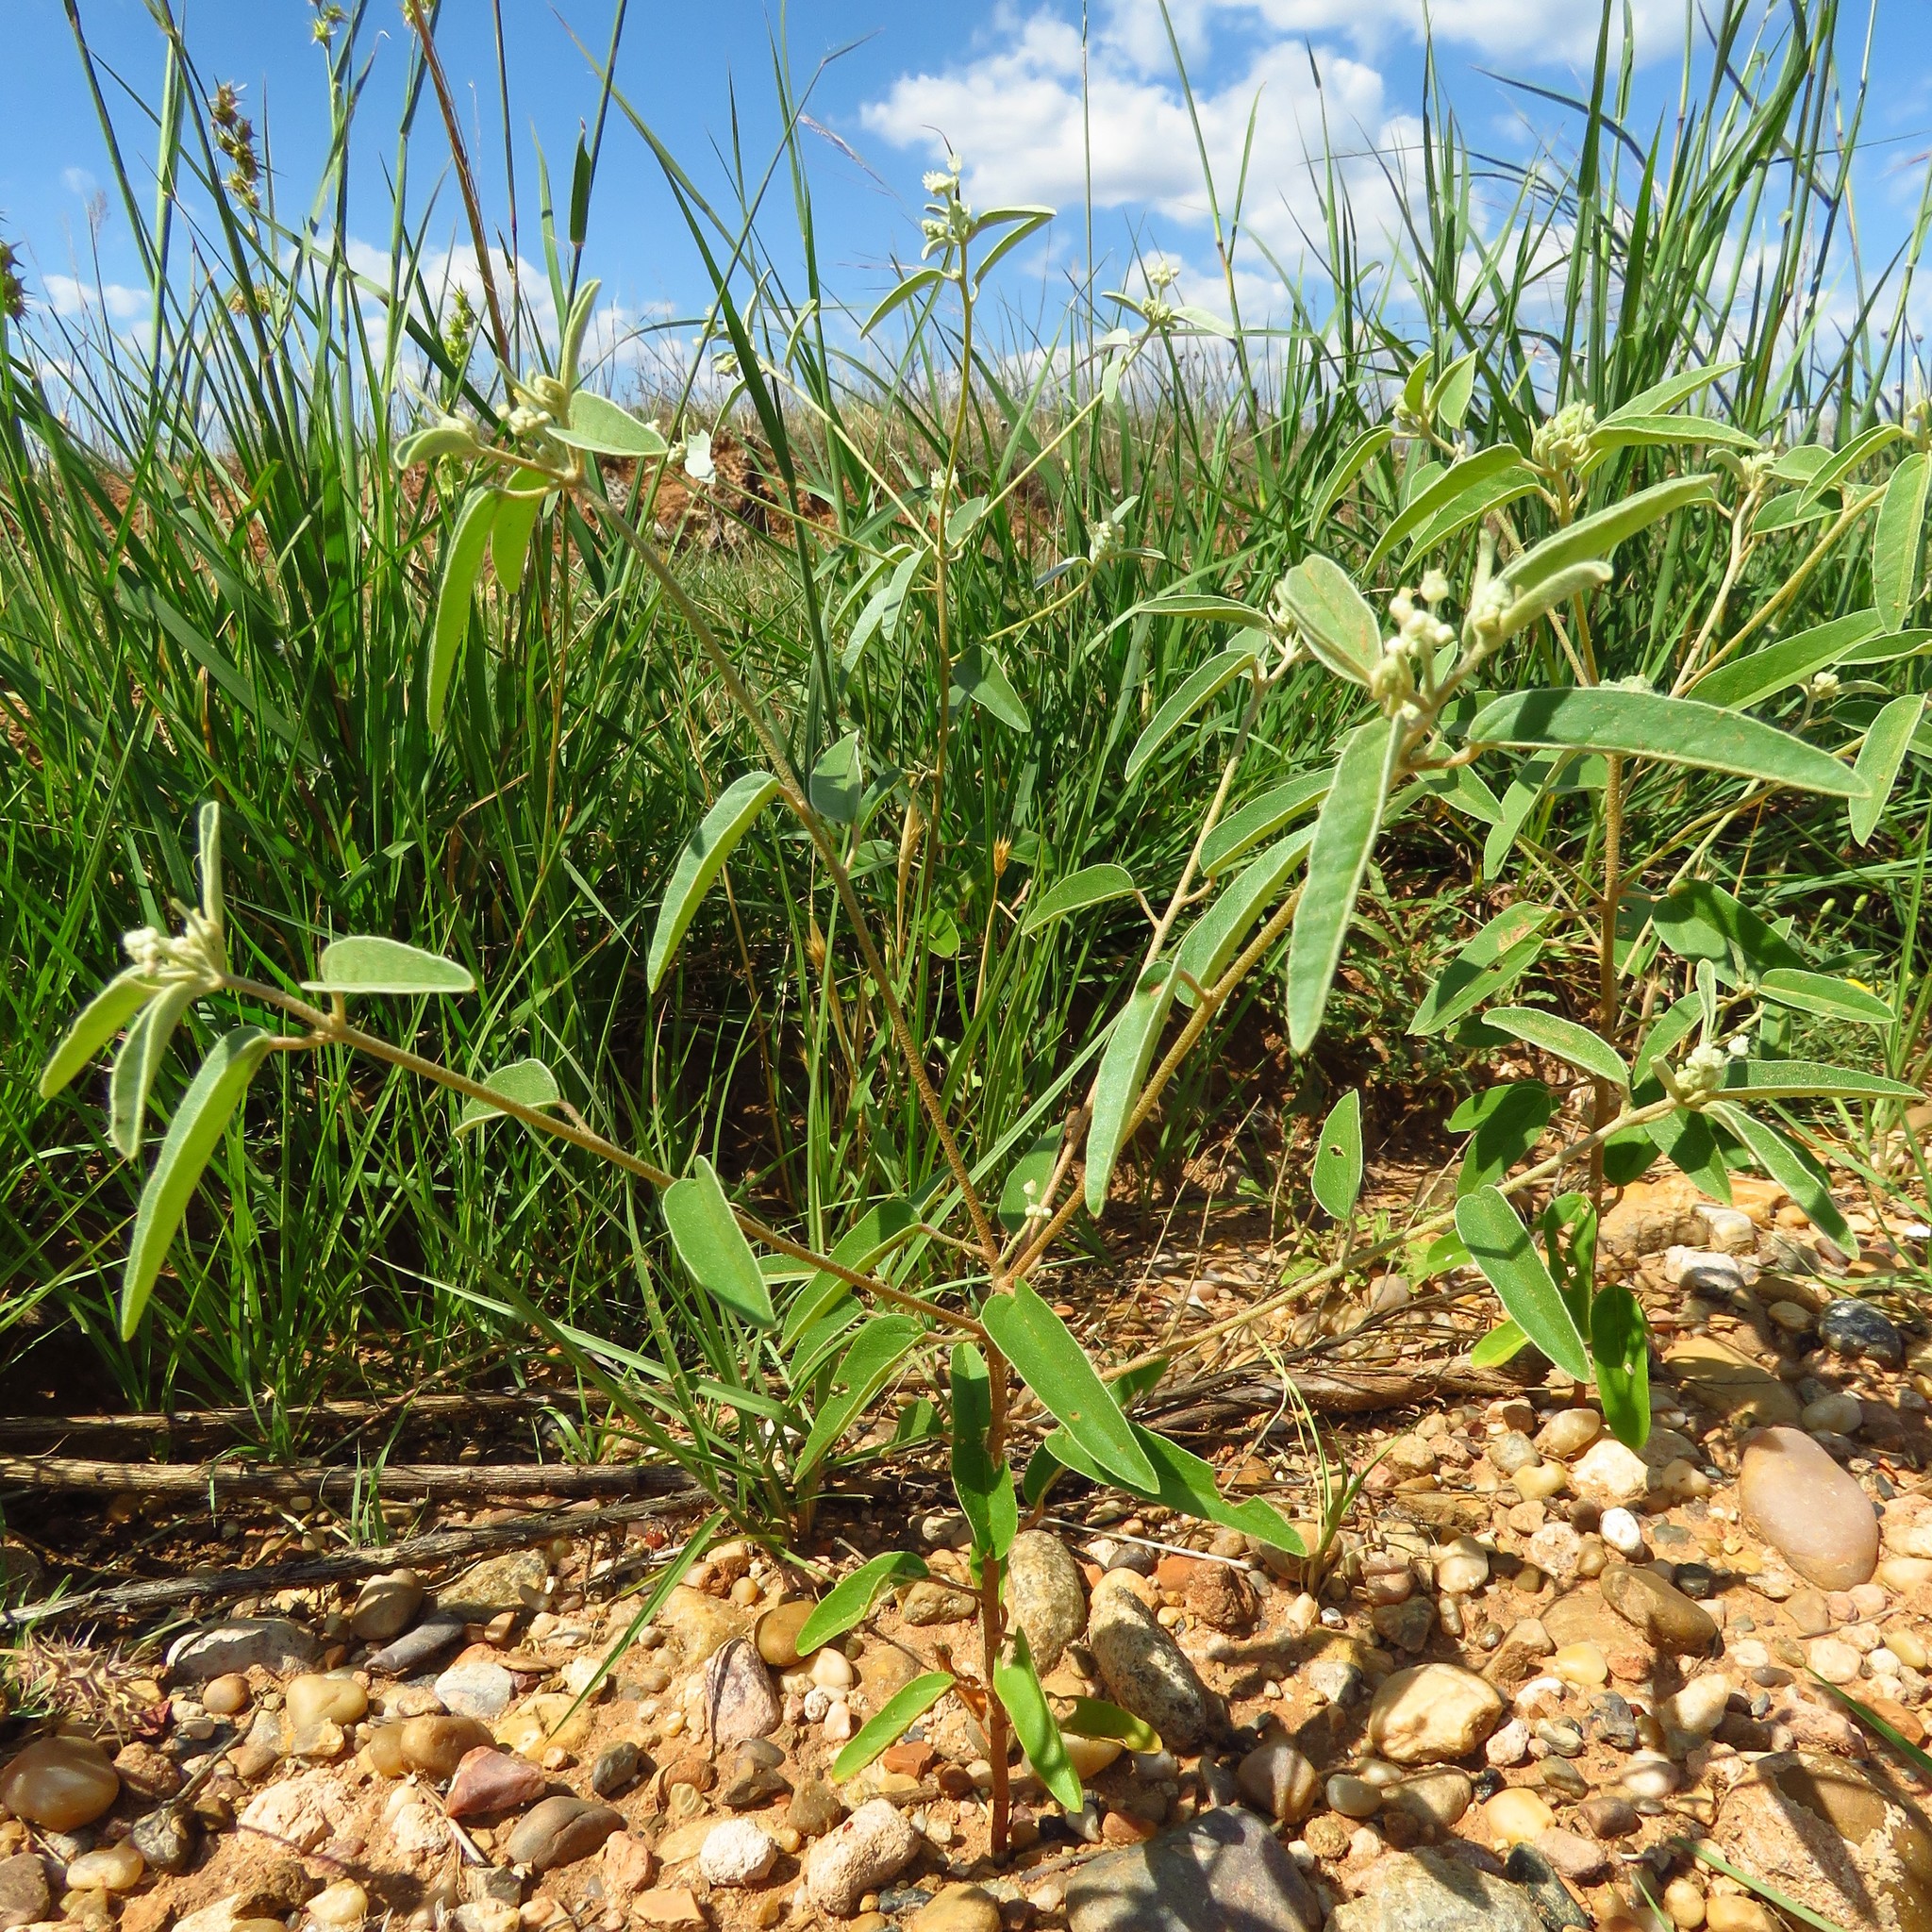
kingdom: Plantae
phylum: Tracheophyta
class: Magnoliopsida
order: Malpighiales
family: Euphorbiaceae
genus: Croton
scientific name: Croton texensis
